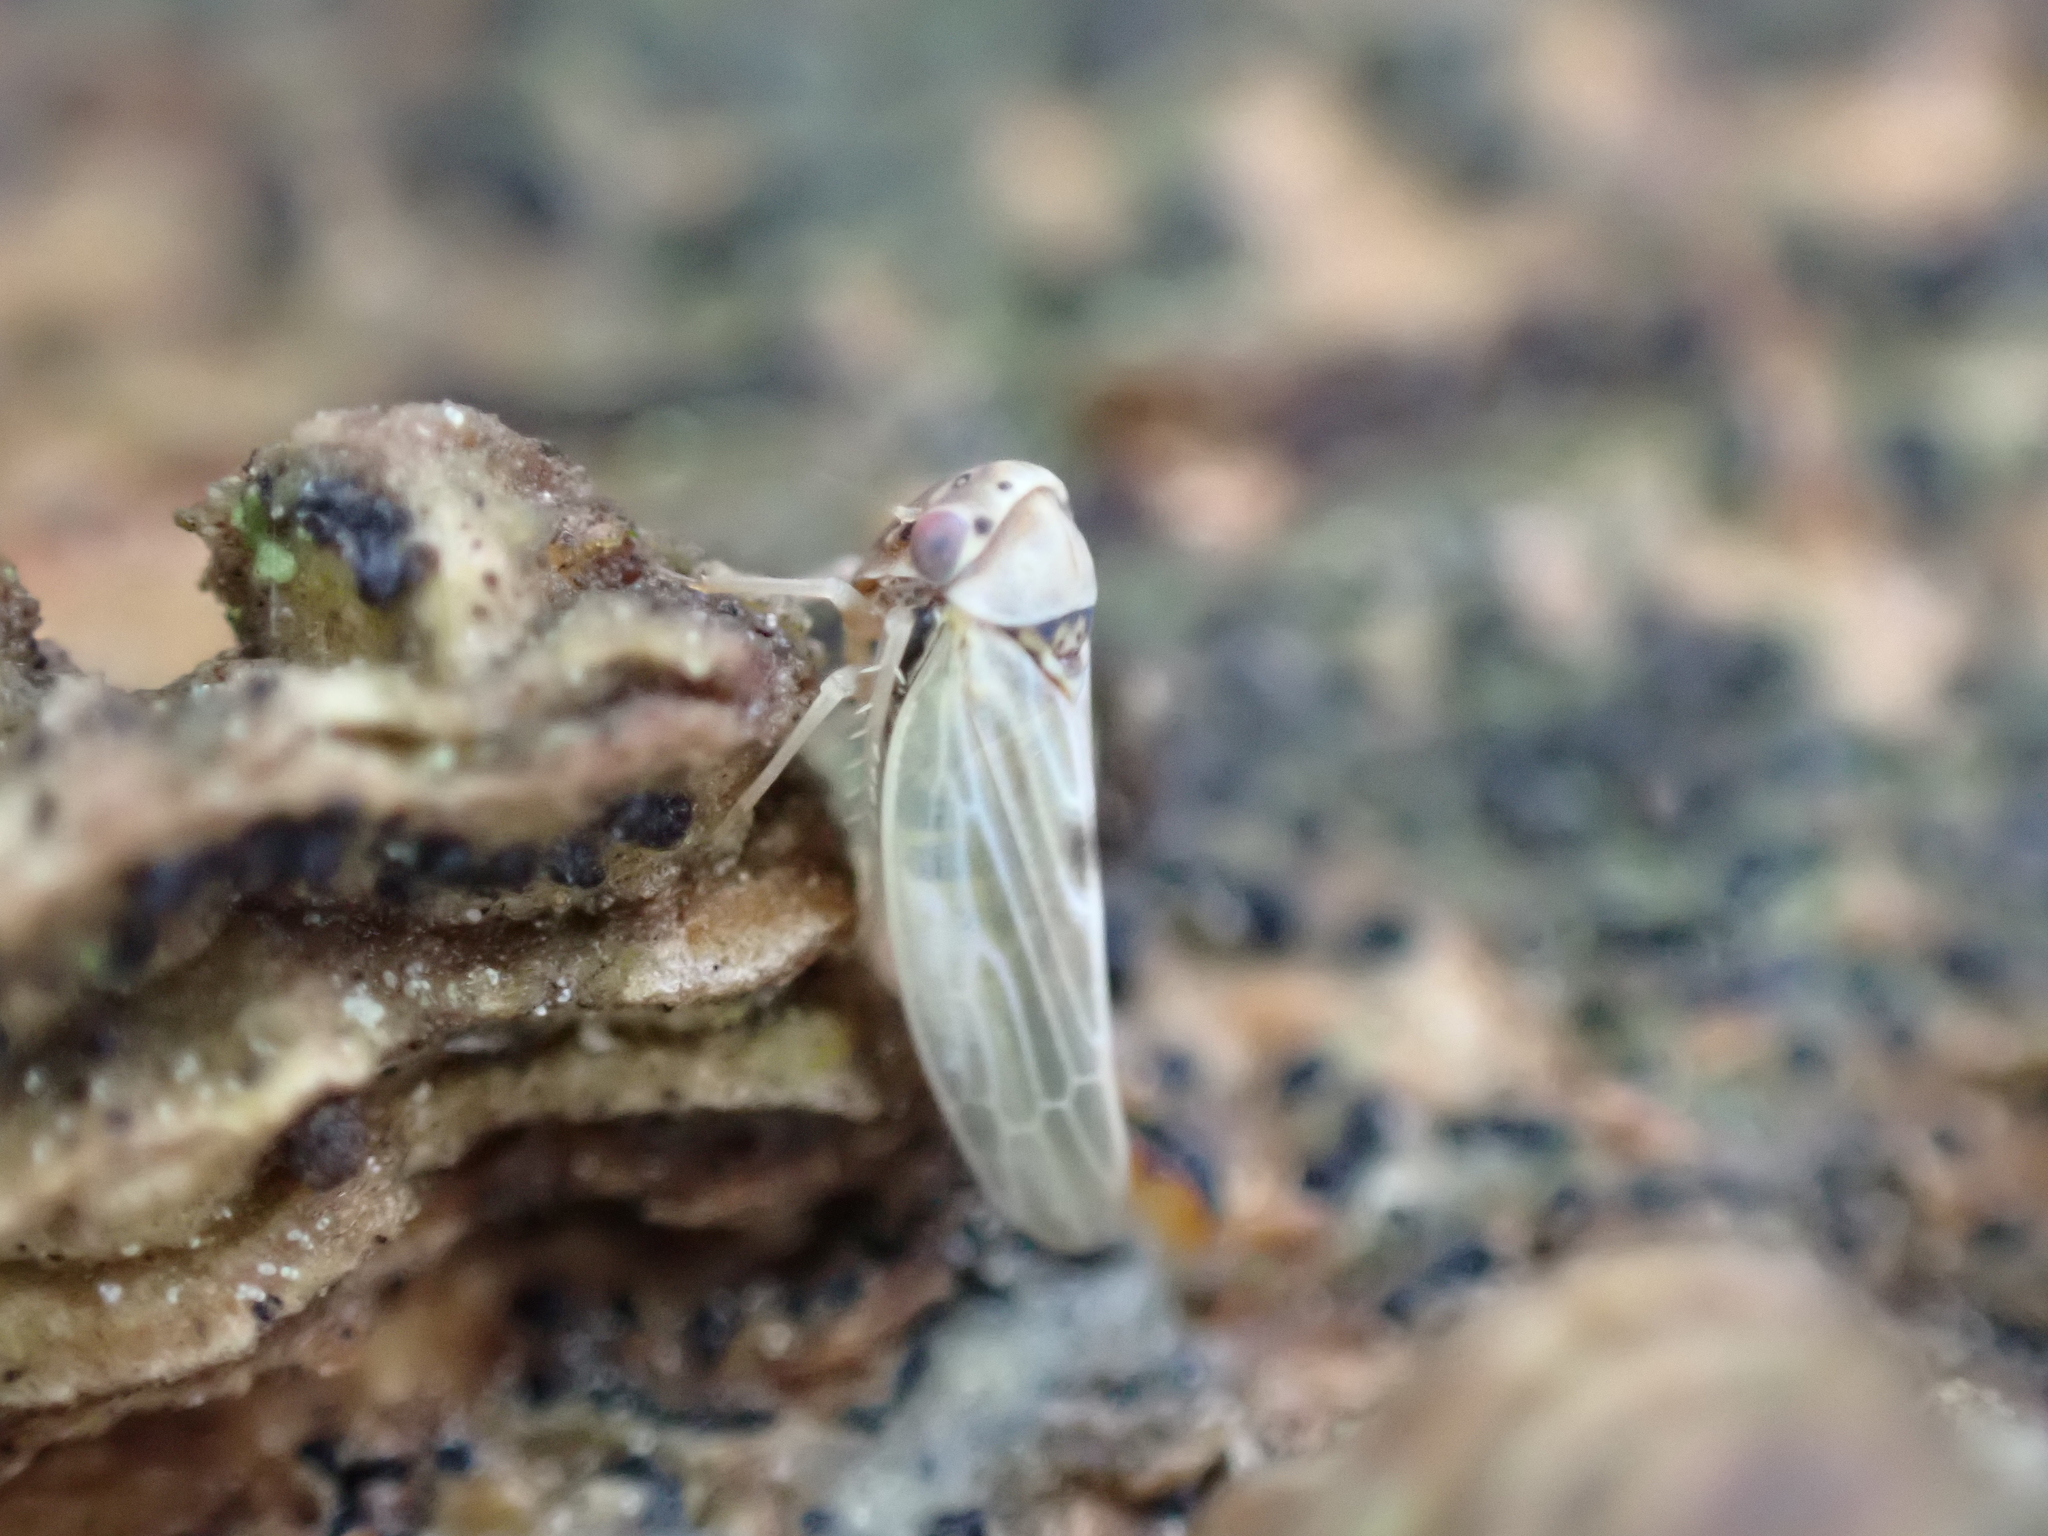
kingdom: Animalia
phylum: Arthropoda
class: Insecta
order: Hemiptera
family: Cicadellidae
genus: Agalliopsis
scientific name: Agalliopsis ancistra
